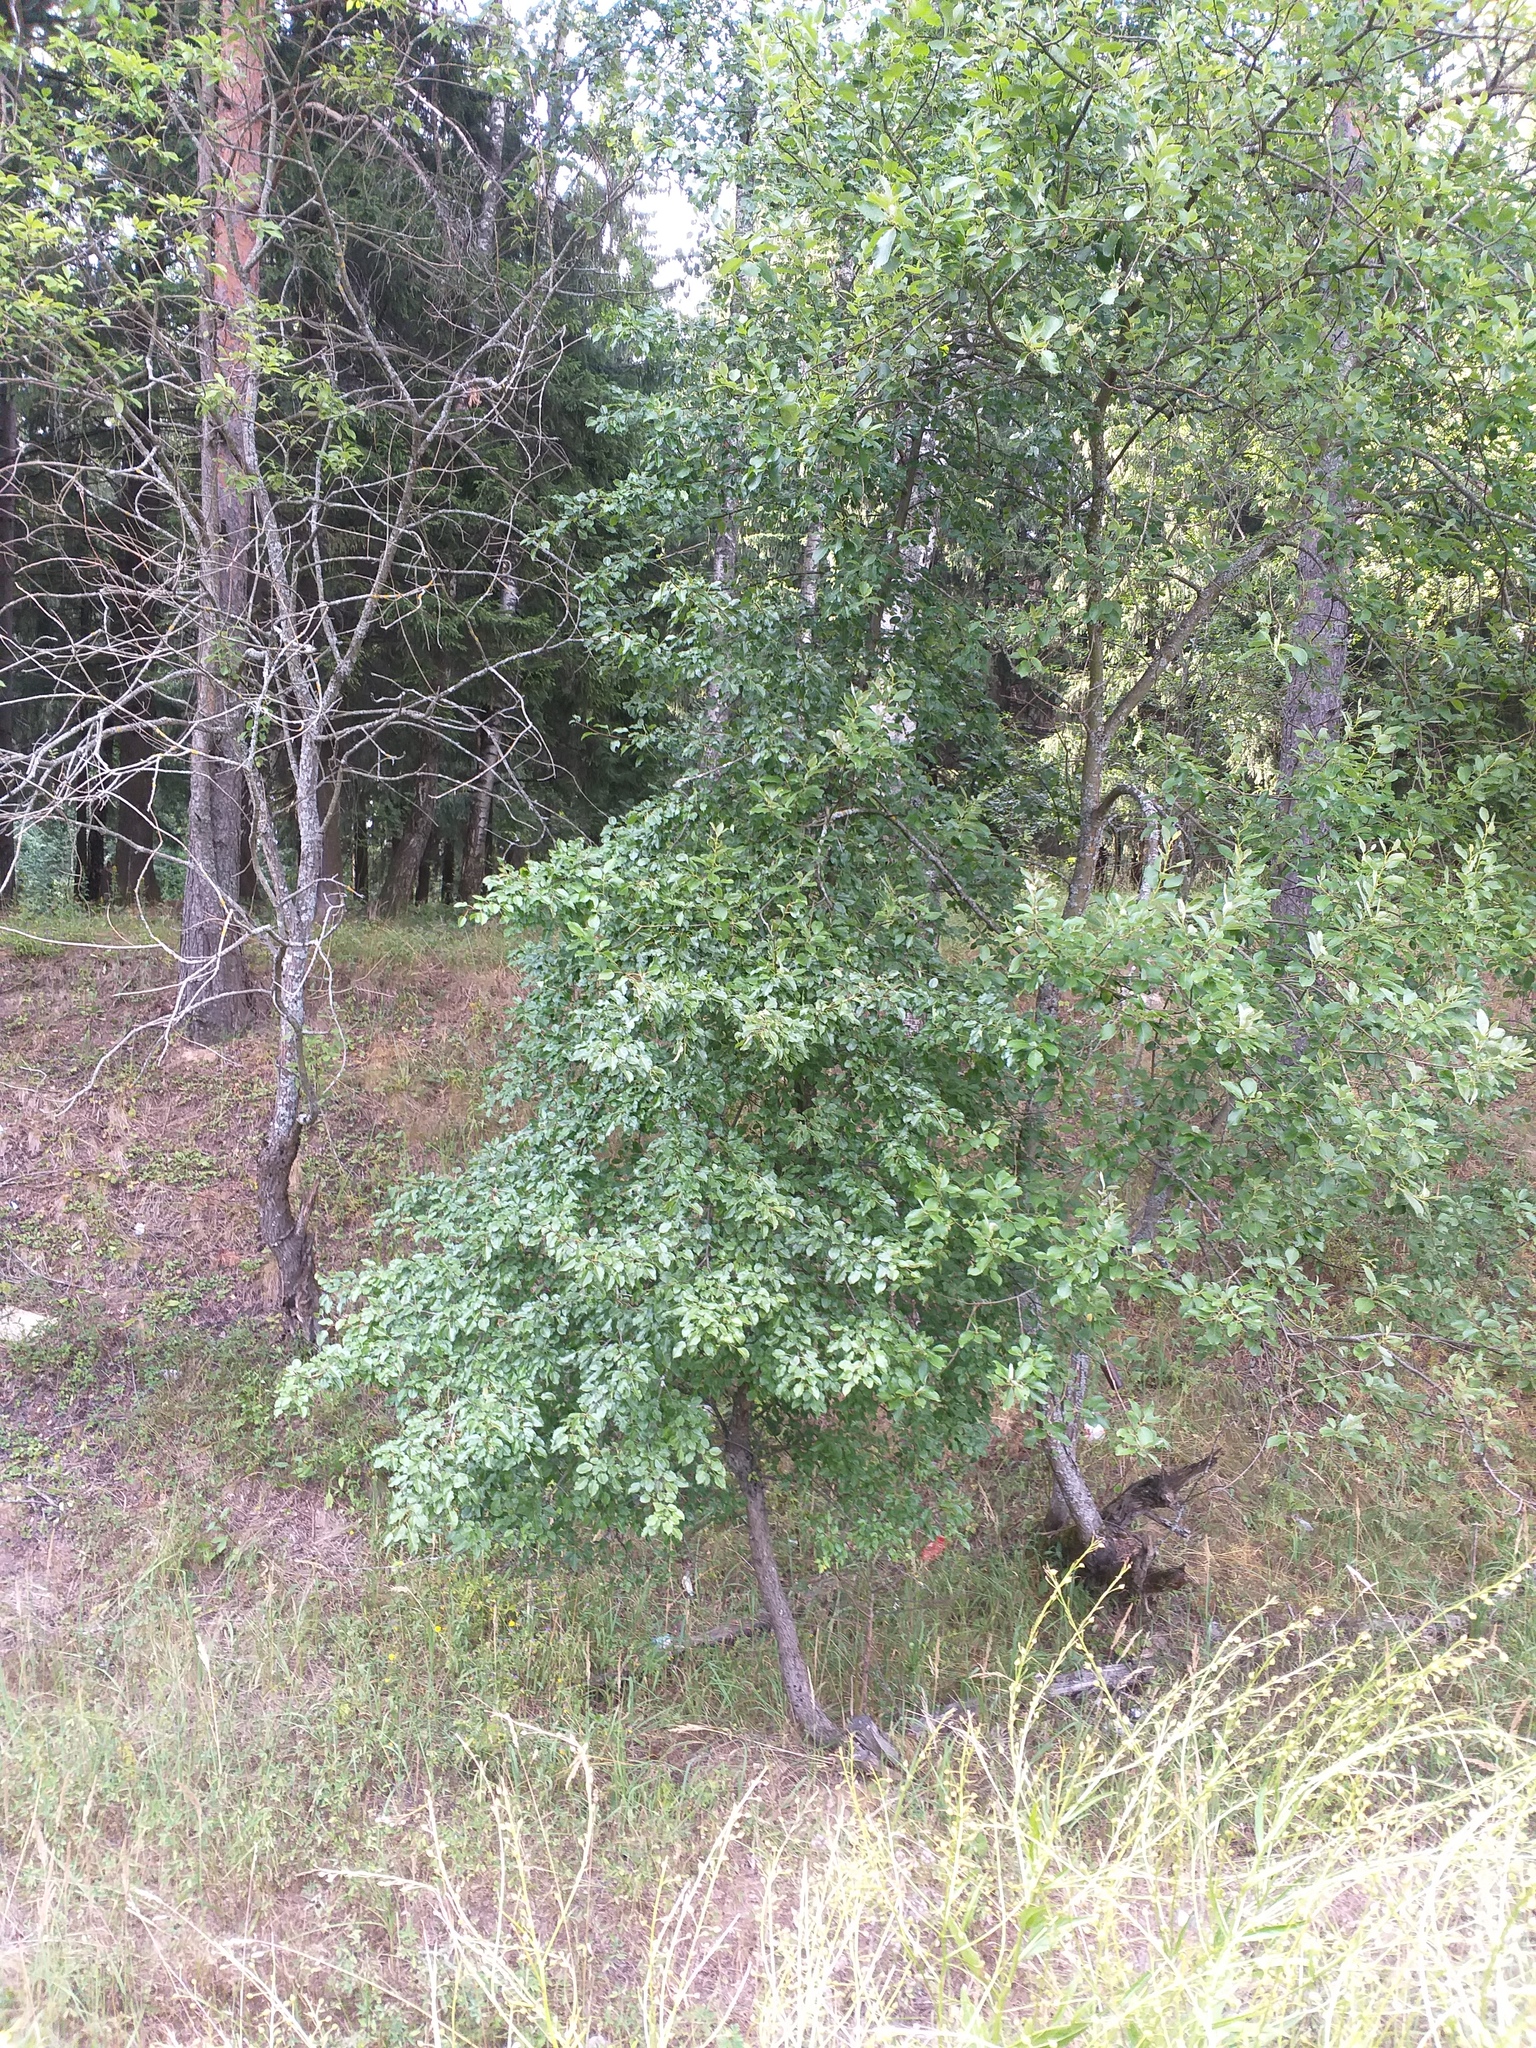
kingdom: Plantae
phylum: Tracheophyta
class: Magnoliopsida
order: Rosales
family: Rosaceae
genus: Pyrus
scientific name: Pyrus communis
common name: Pear
